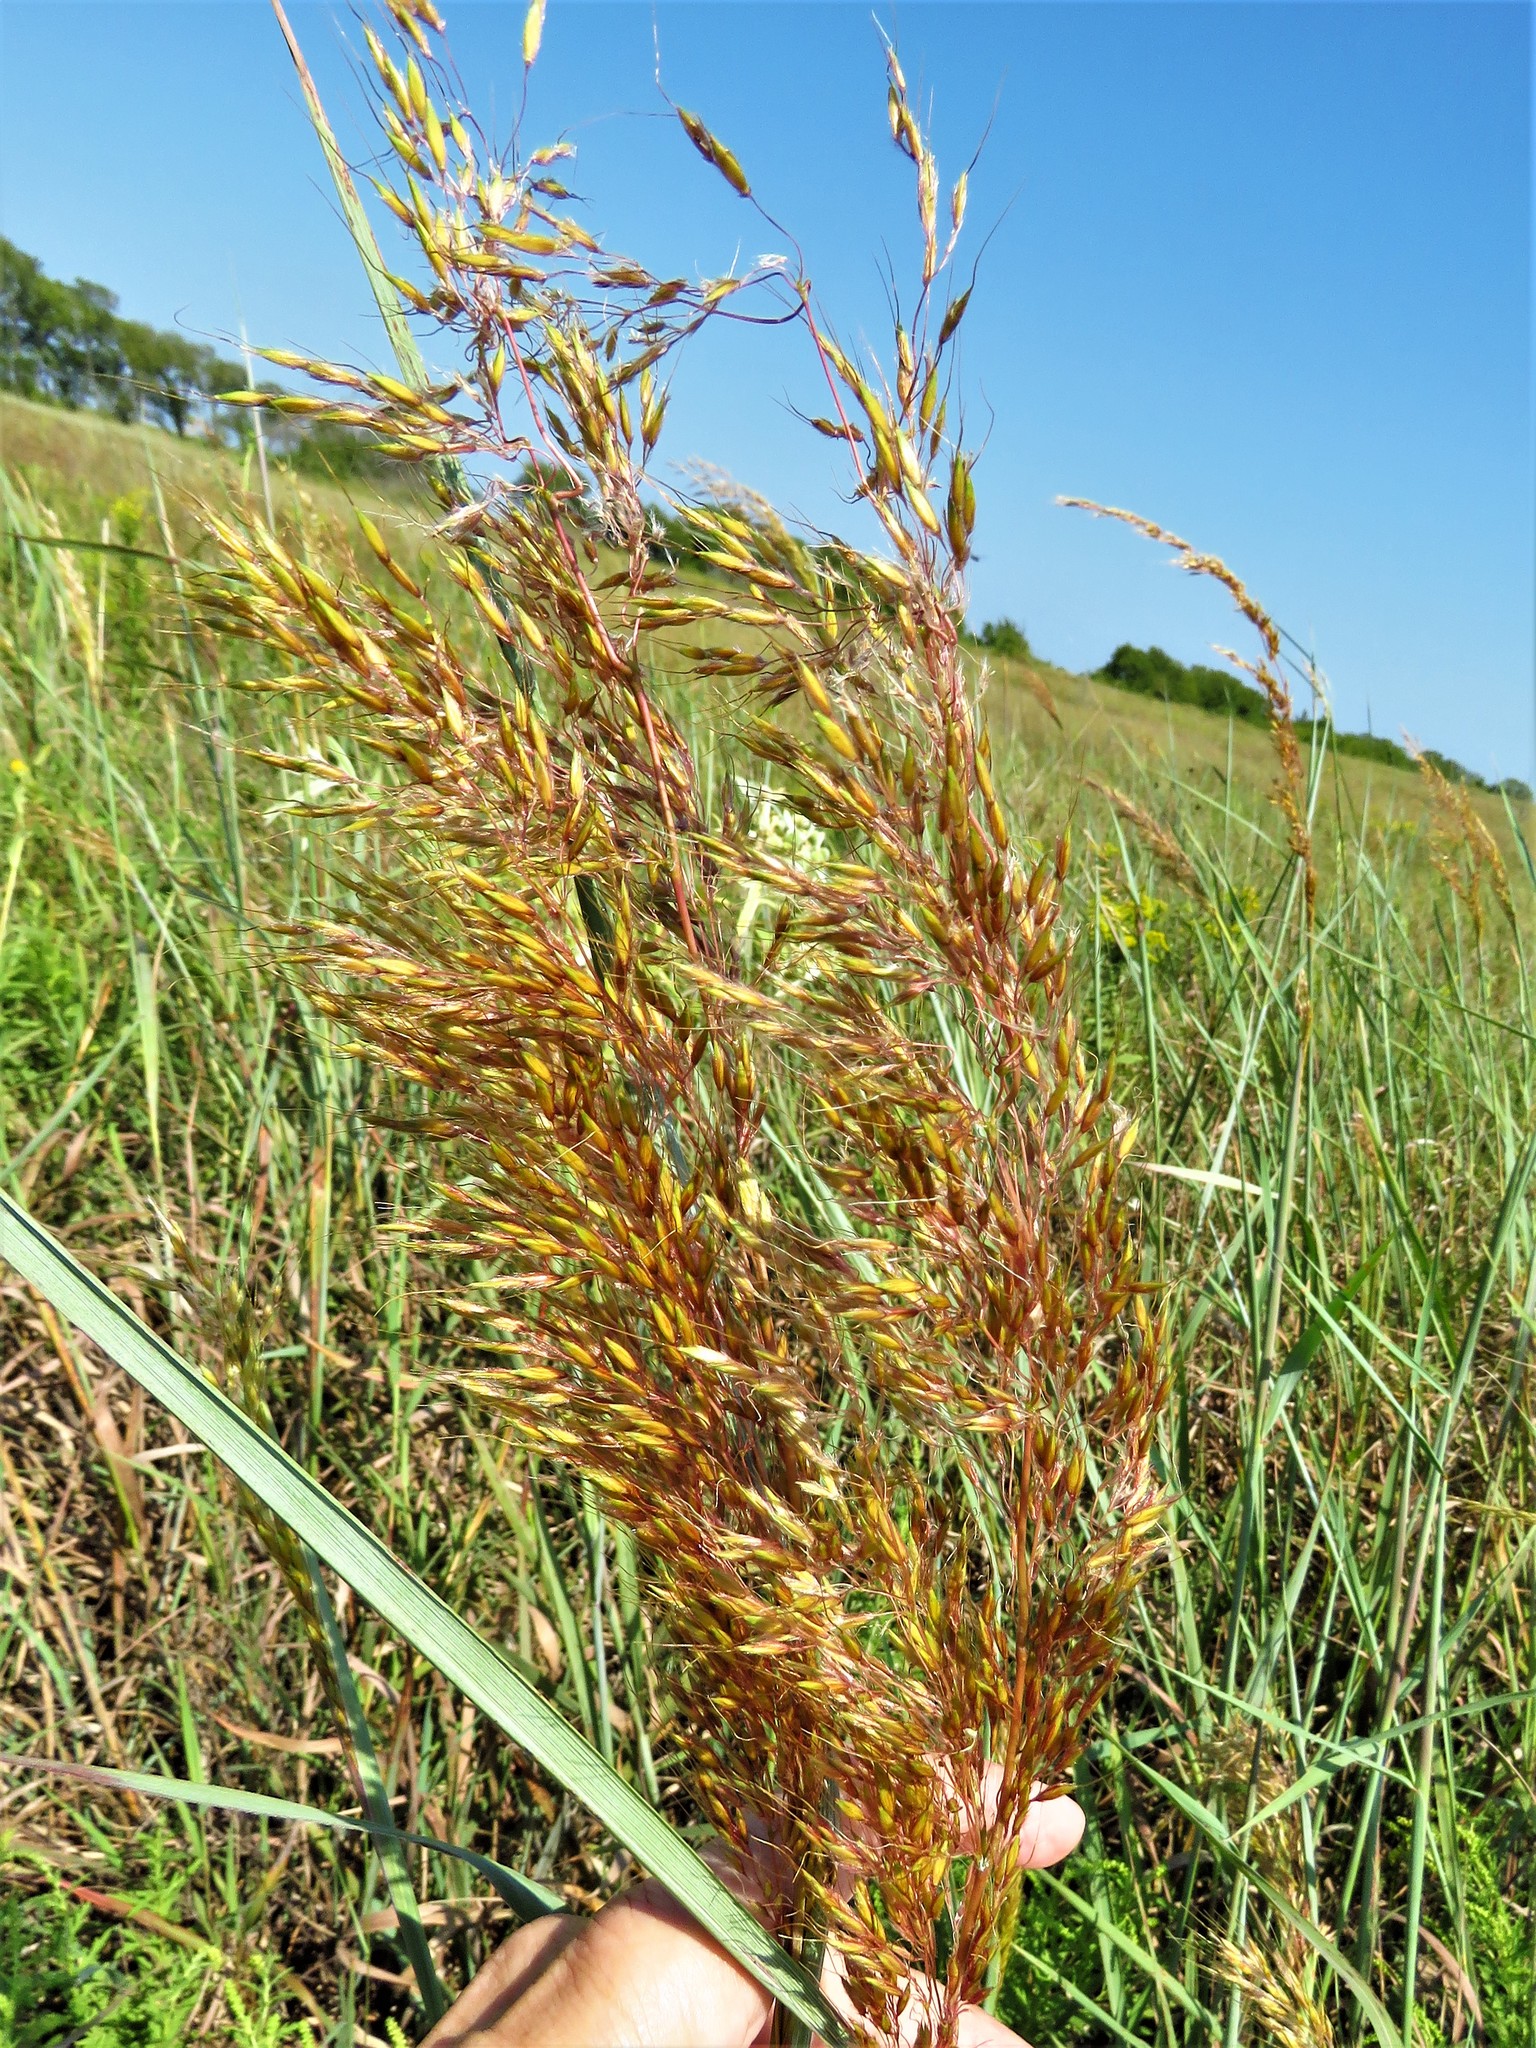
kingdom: Plantae
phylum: Tracheophyta
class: Liliopsida
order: Poales
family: Poaceae
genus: Sorghastrum
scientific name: Sorghastrum nutans
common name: Indian grass
